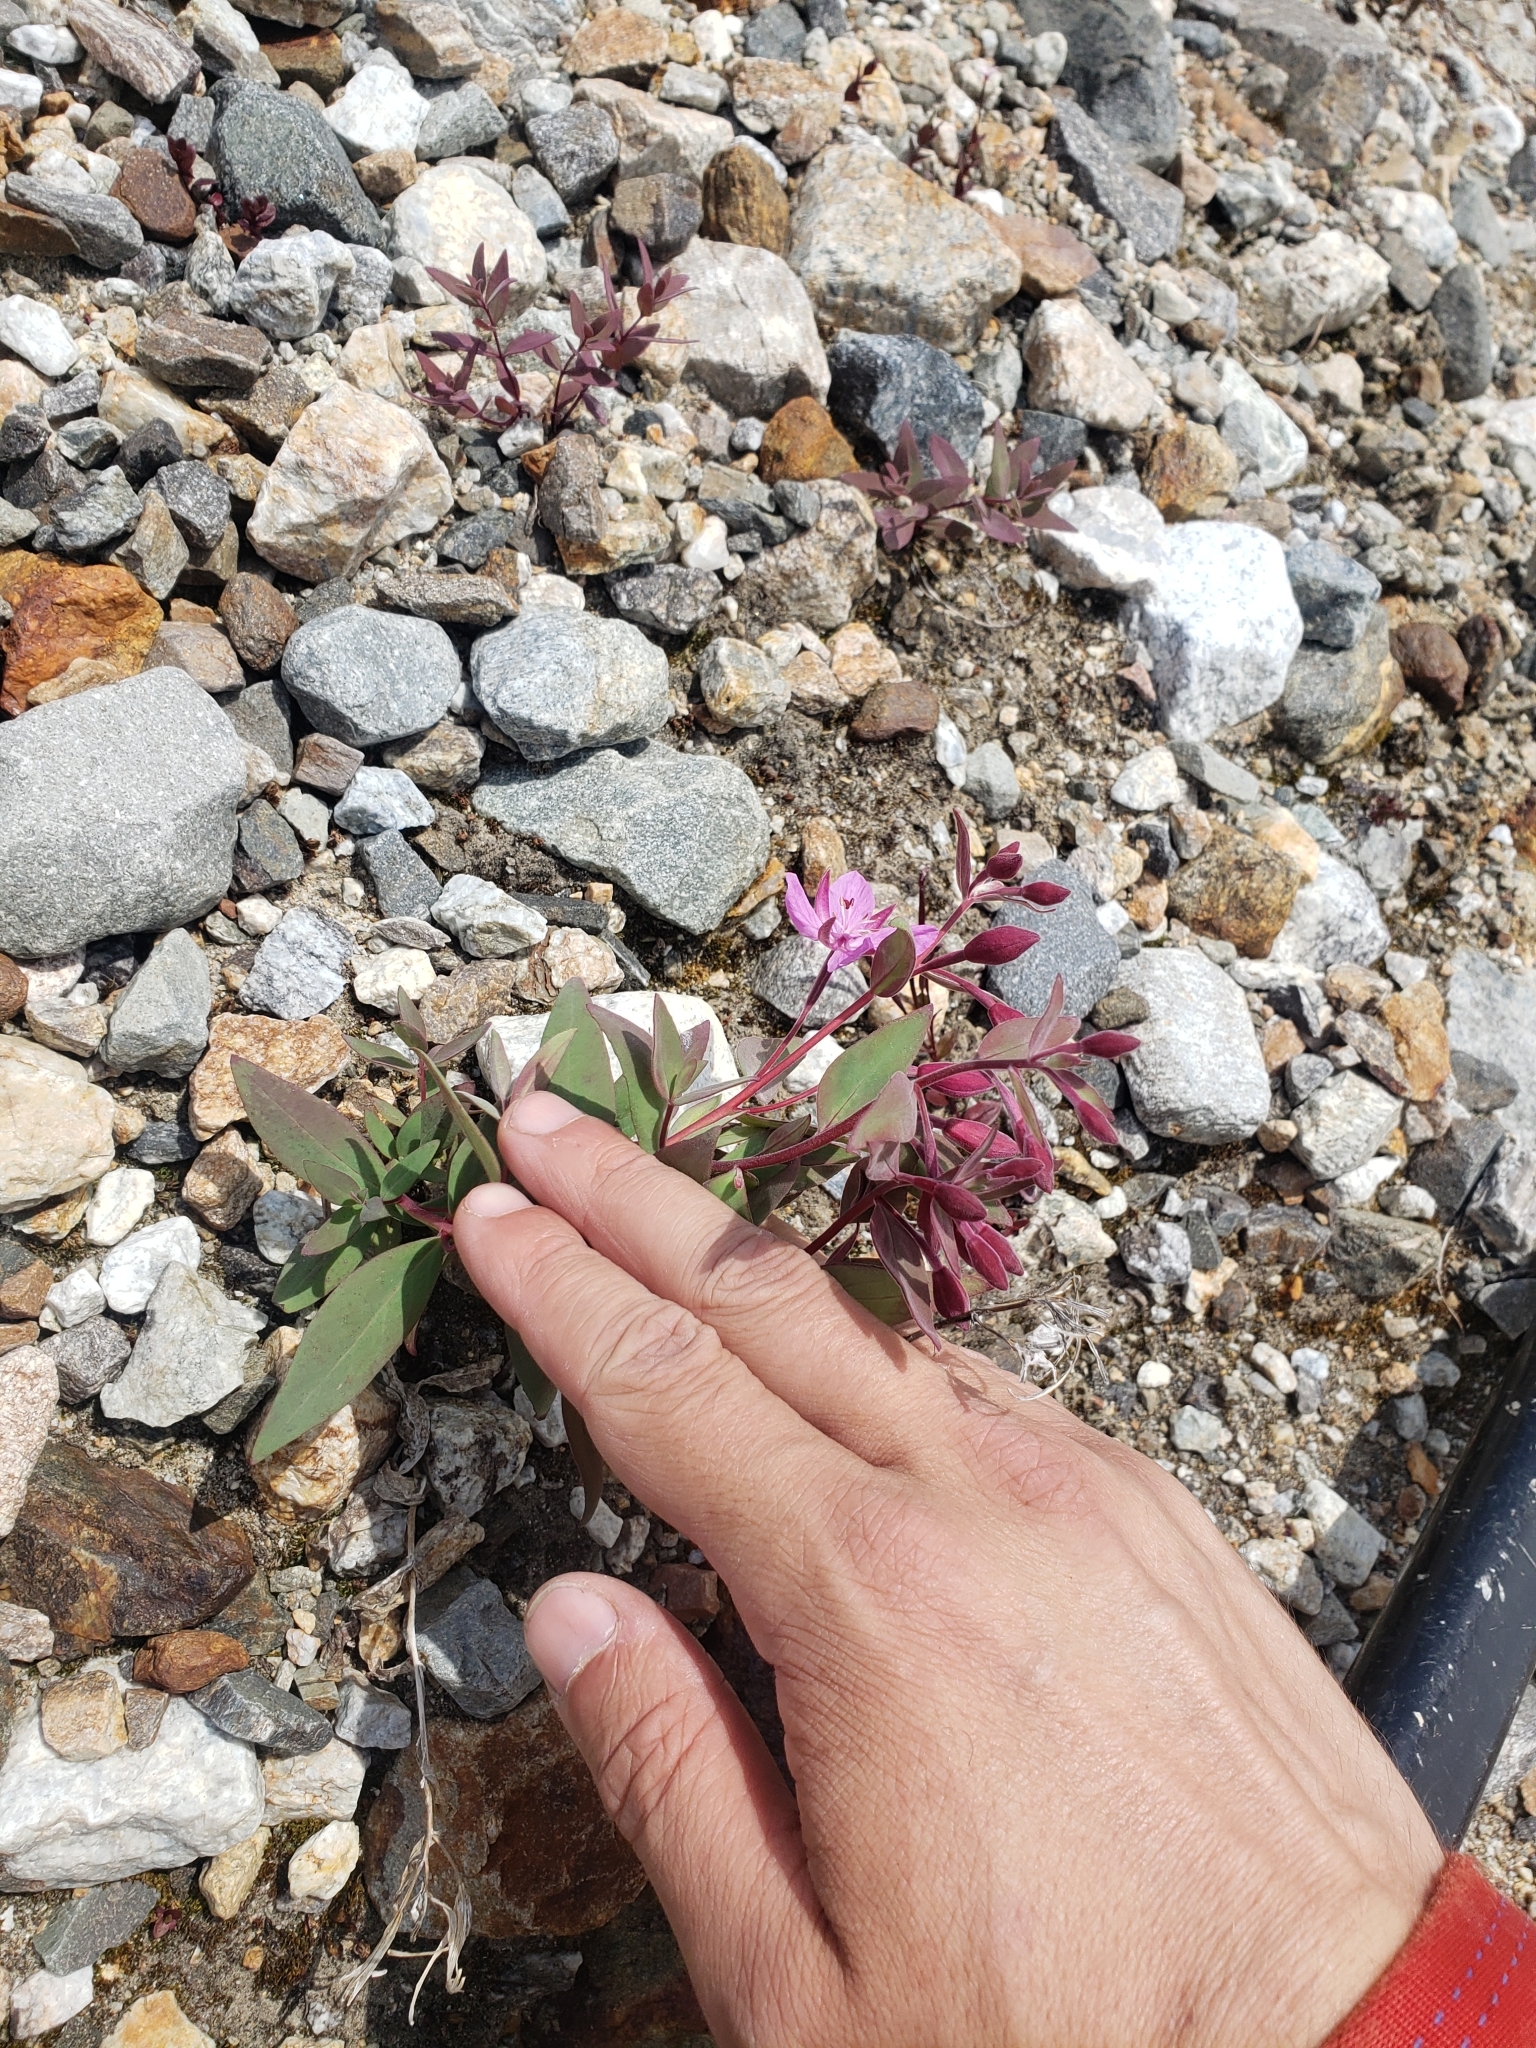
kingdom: Plantae
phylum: Tracheophyta
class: Magnoliopsida
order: Myrtales
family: Onagraceae
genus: Chamaenerion
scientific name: Chamaenerion latifolium
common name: Dwarf fireweed
